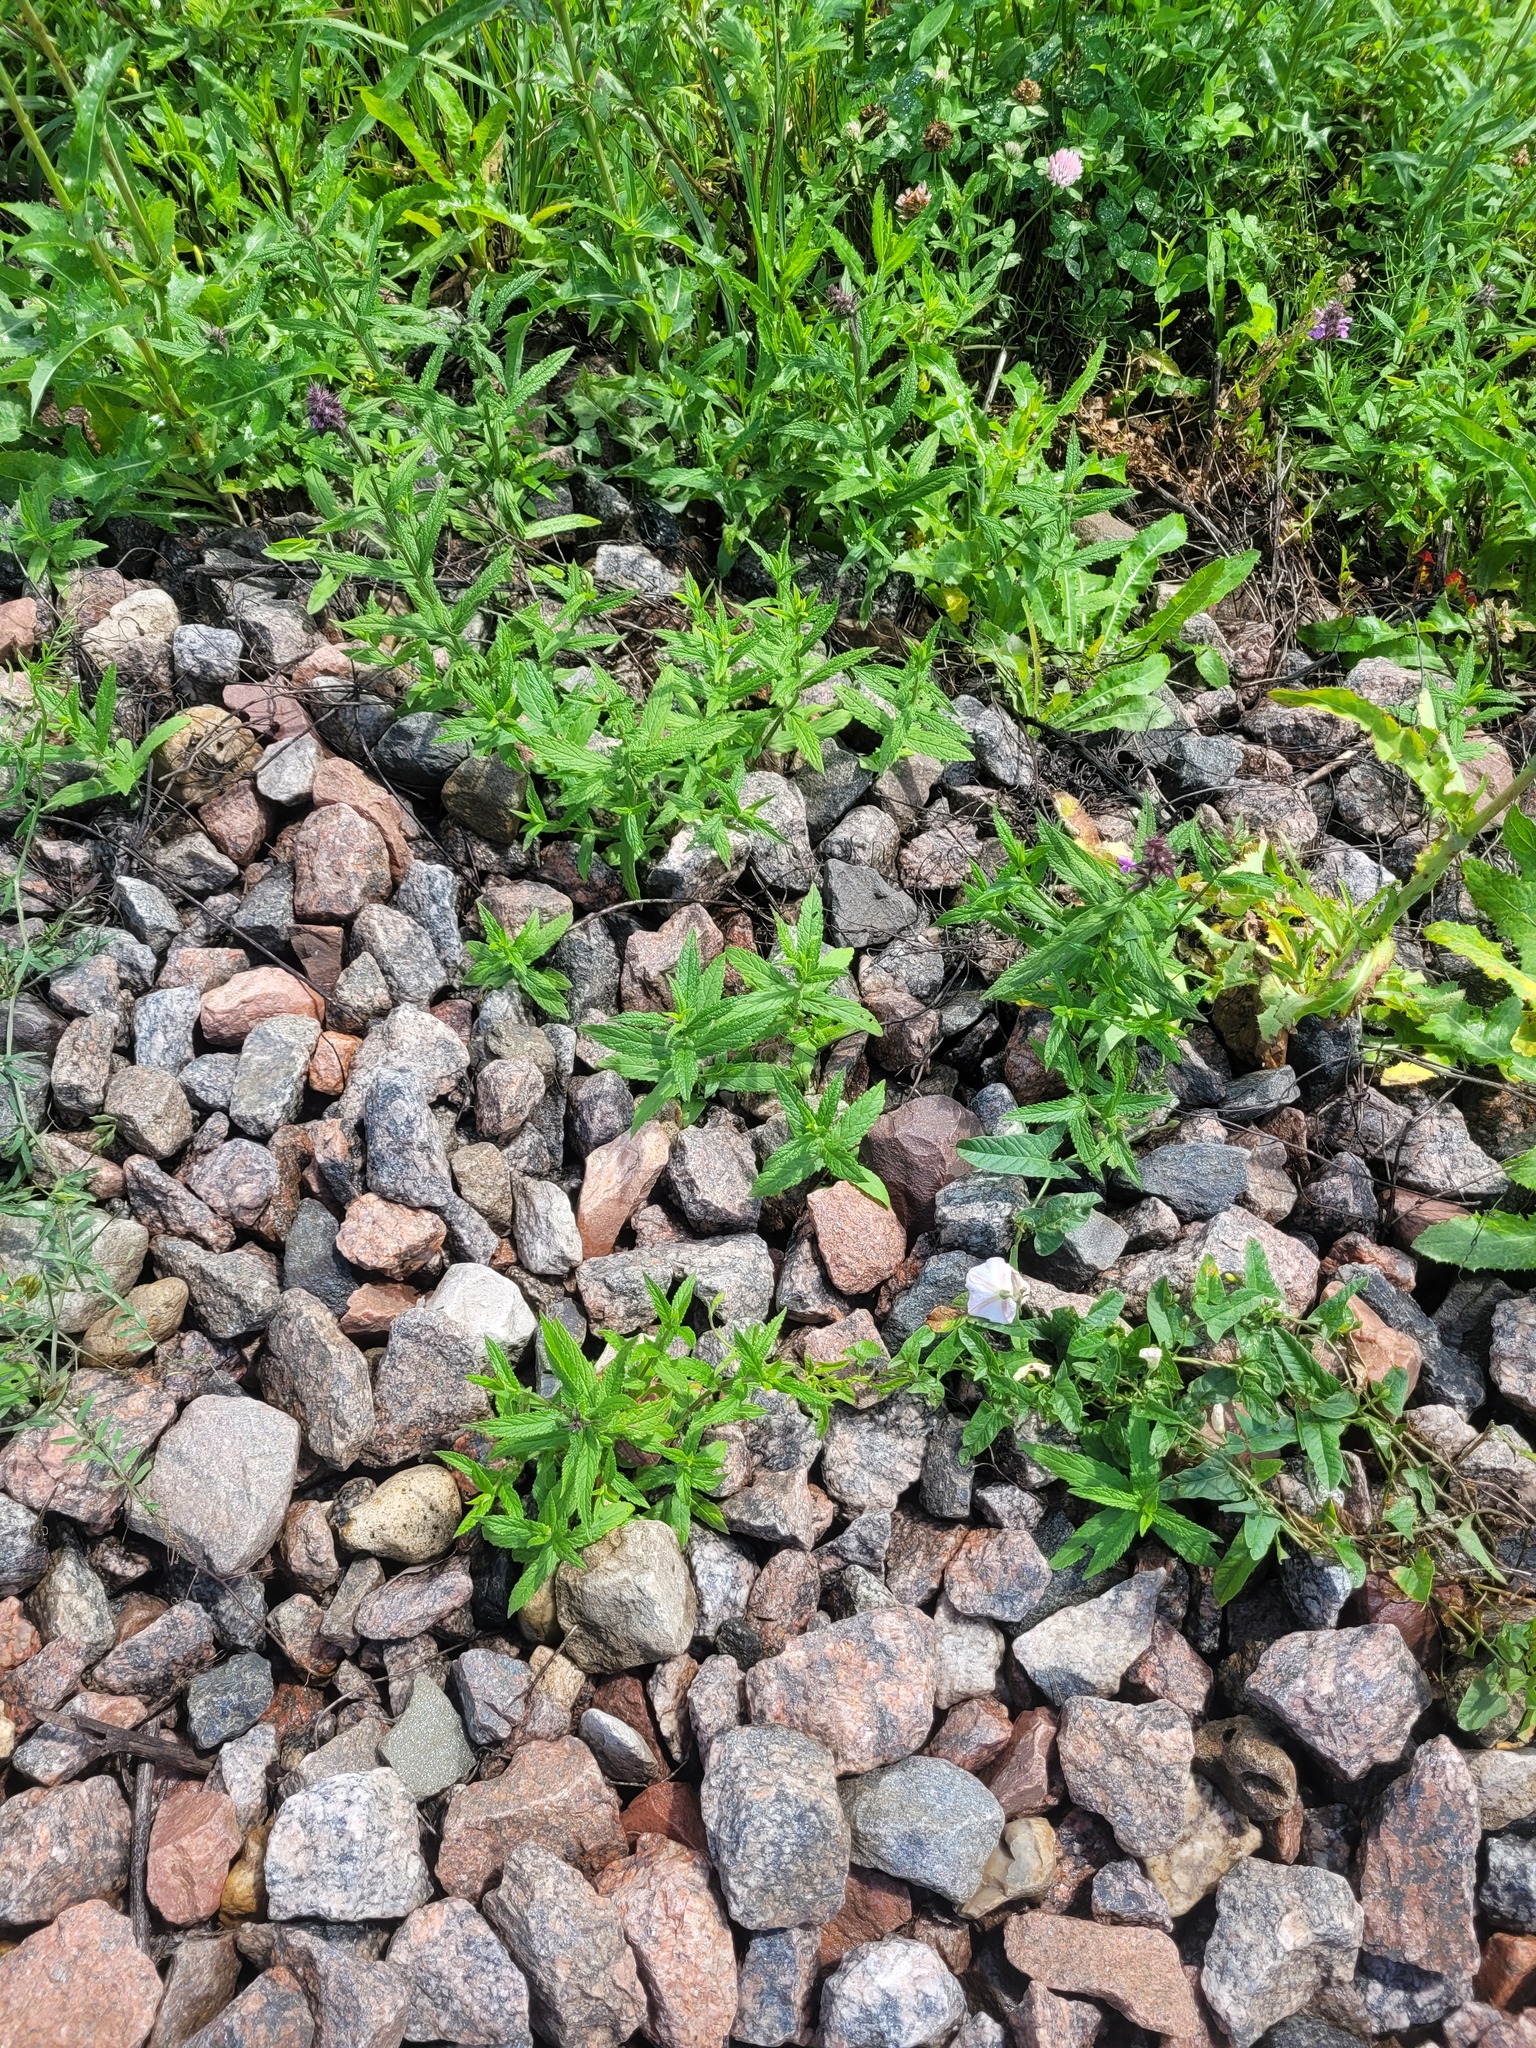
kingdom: Plantae
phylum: Tracheophyta
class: Magnoliopsida
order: Lamiales
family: Lamiaceae
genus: Stachys
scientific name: Stachys palustris
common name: Marsh woundwort
